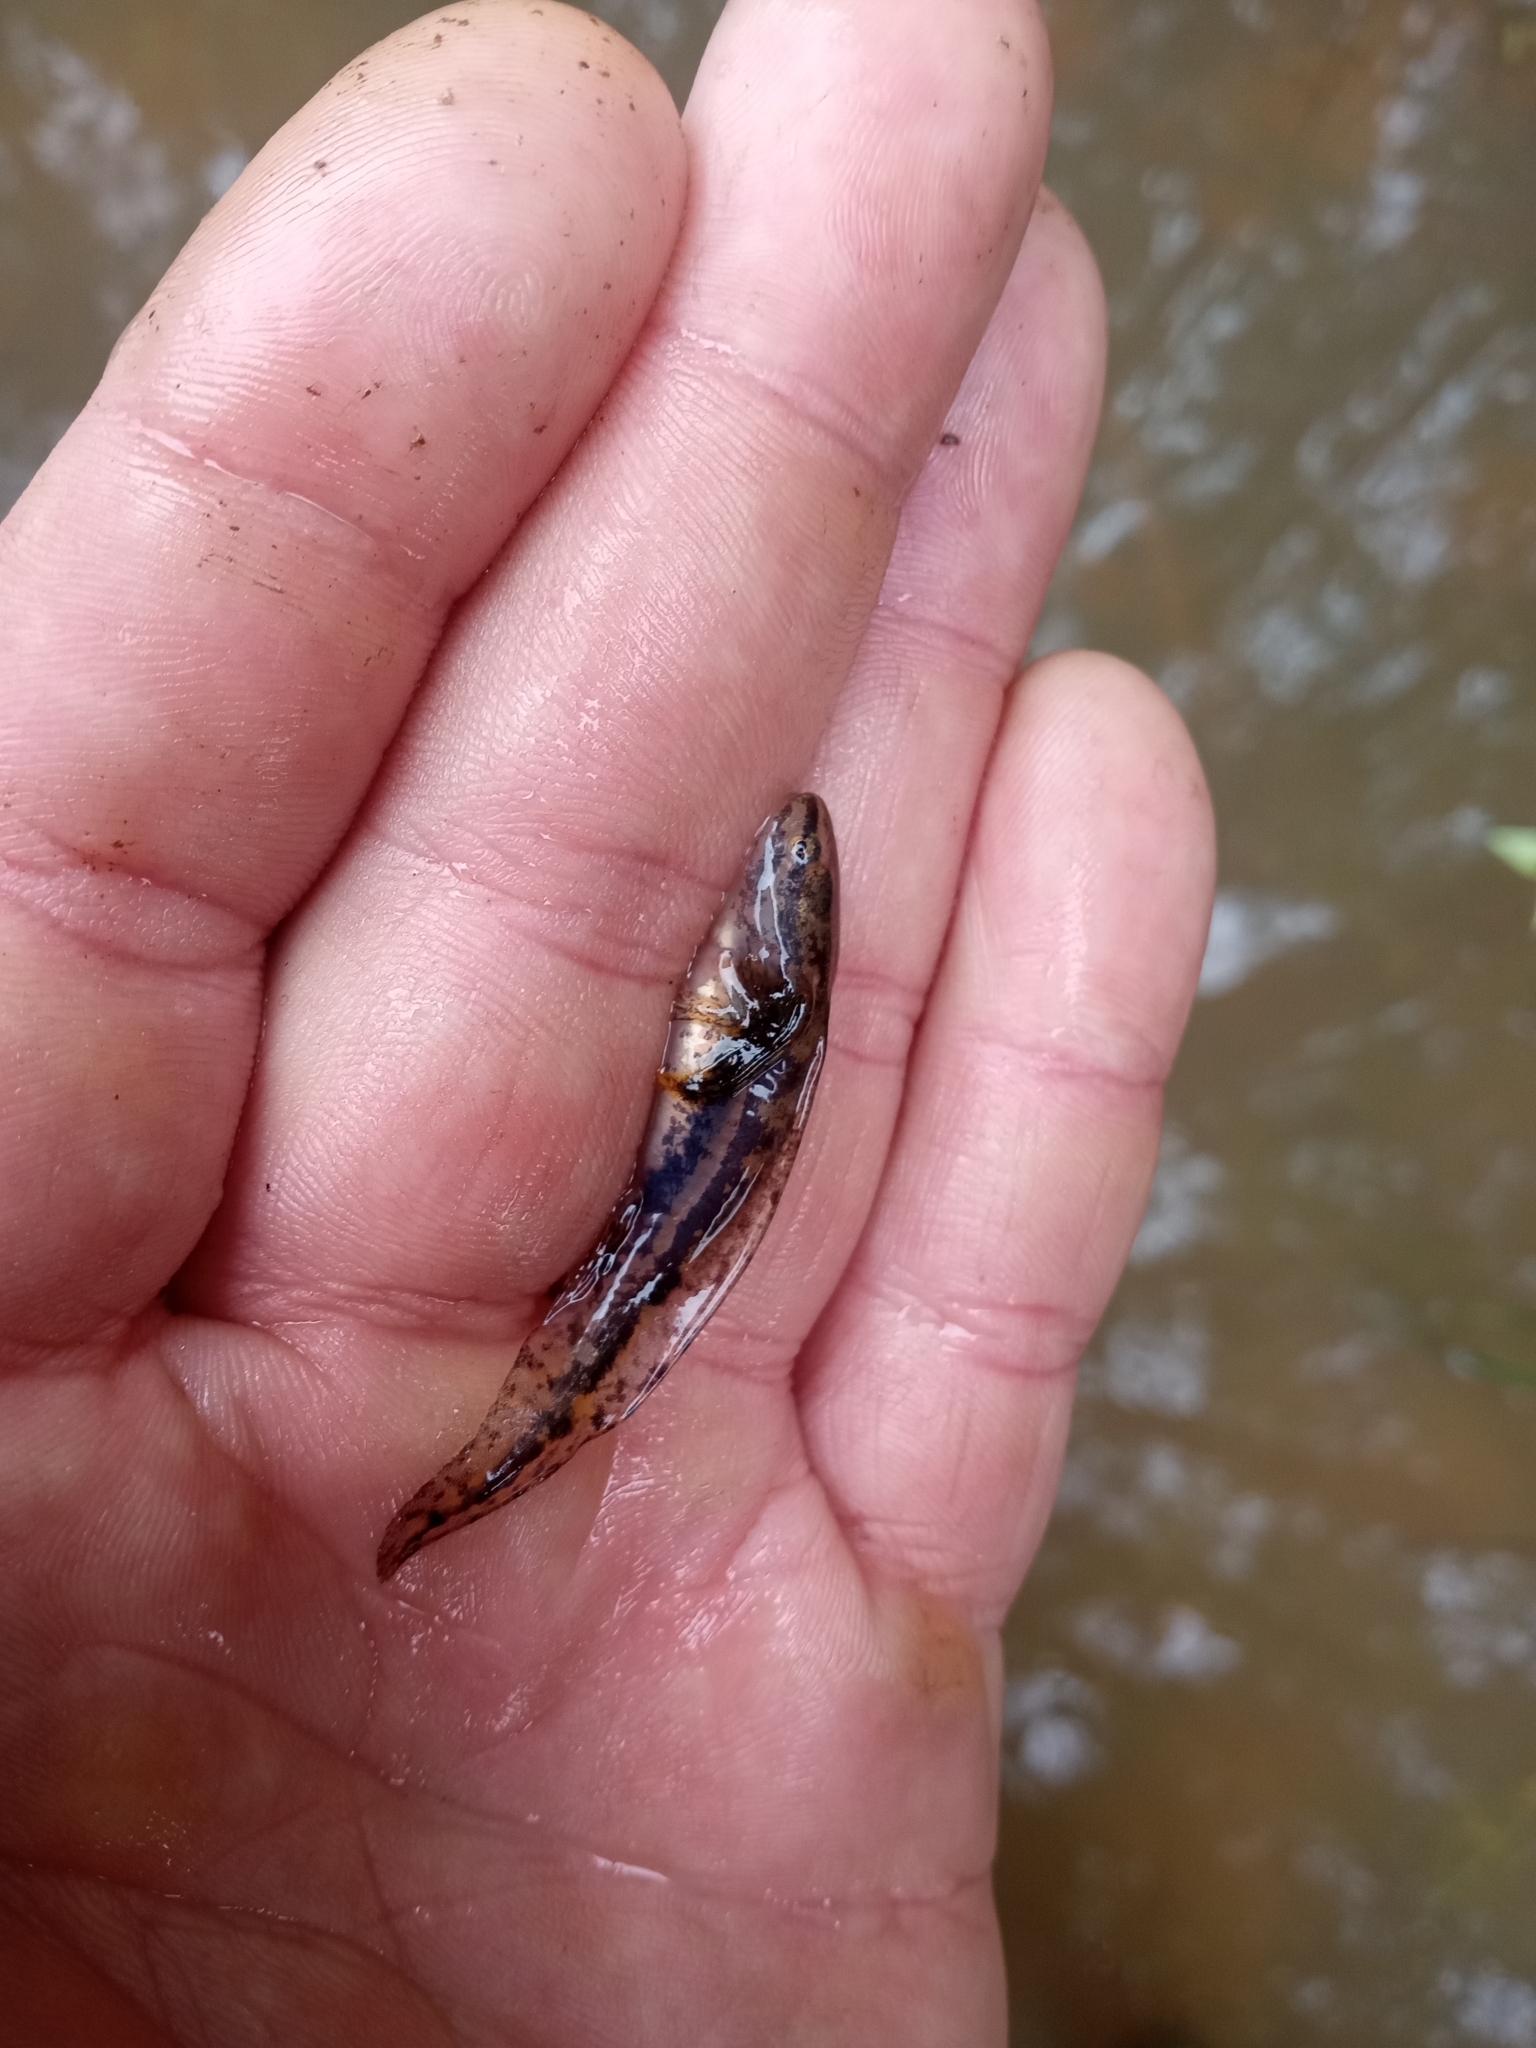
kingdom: Animalia
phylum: Chordata
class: Amphibia
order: Caudata
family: Ambystomatidae
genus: Ambystoma
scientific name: Ambystoma talpoideum
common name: Mole salamander
